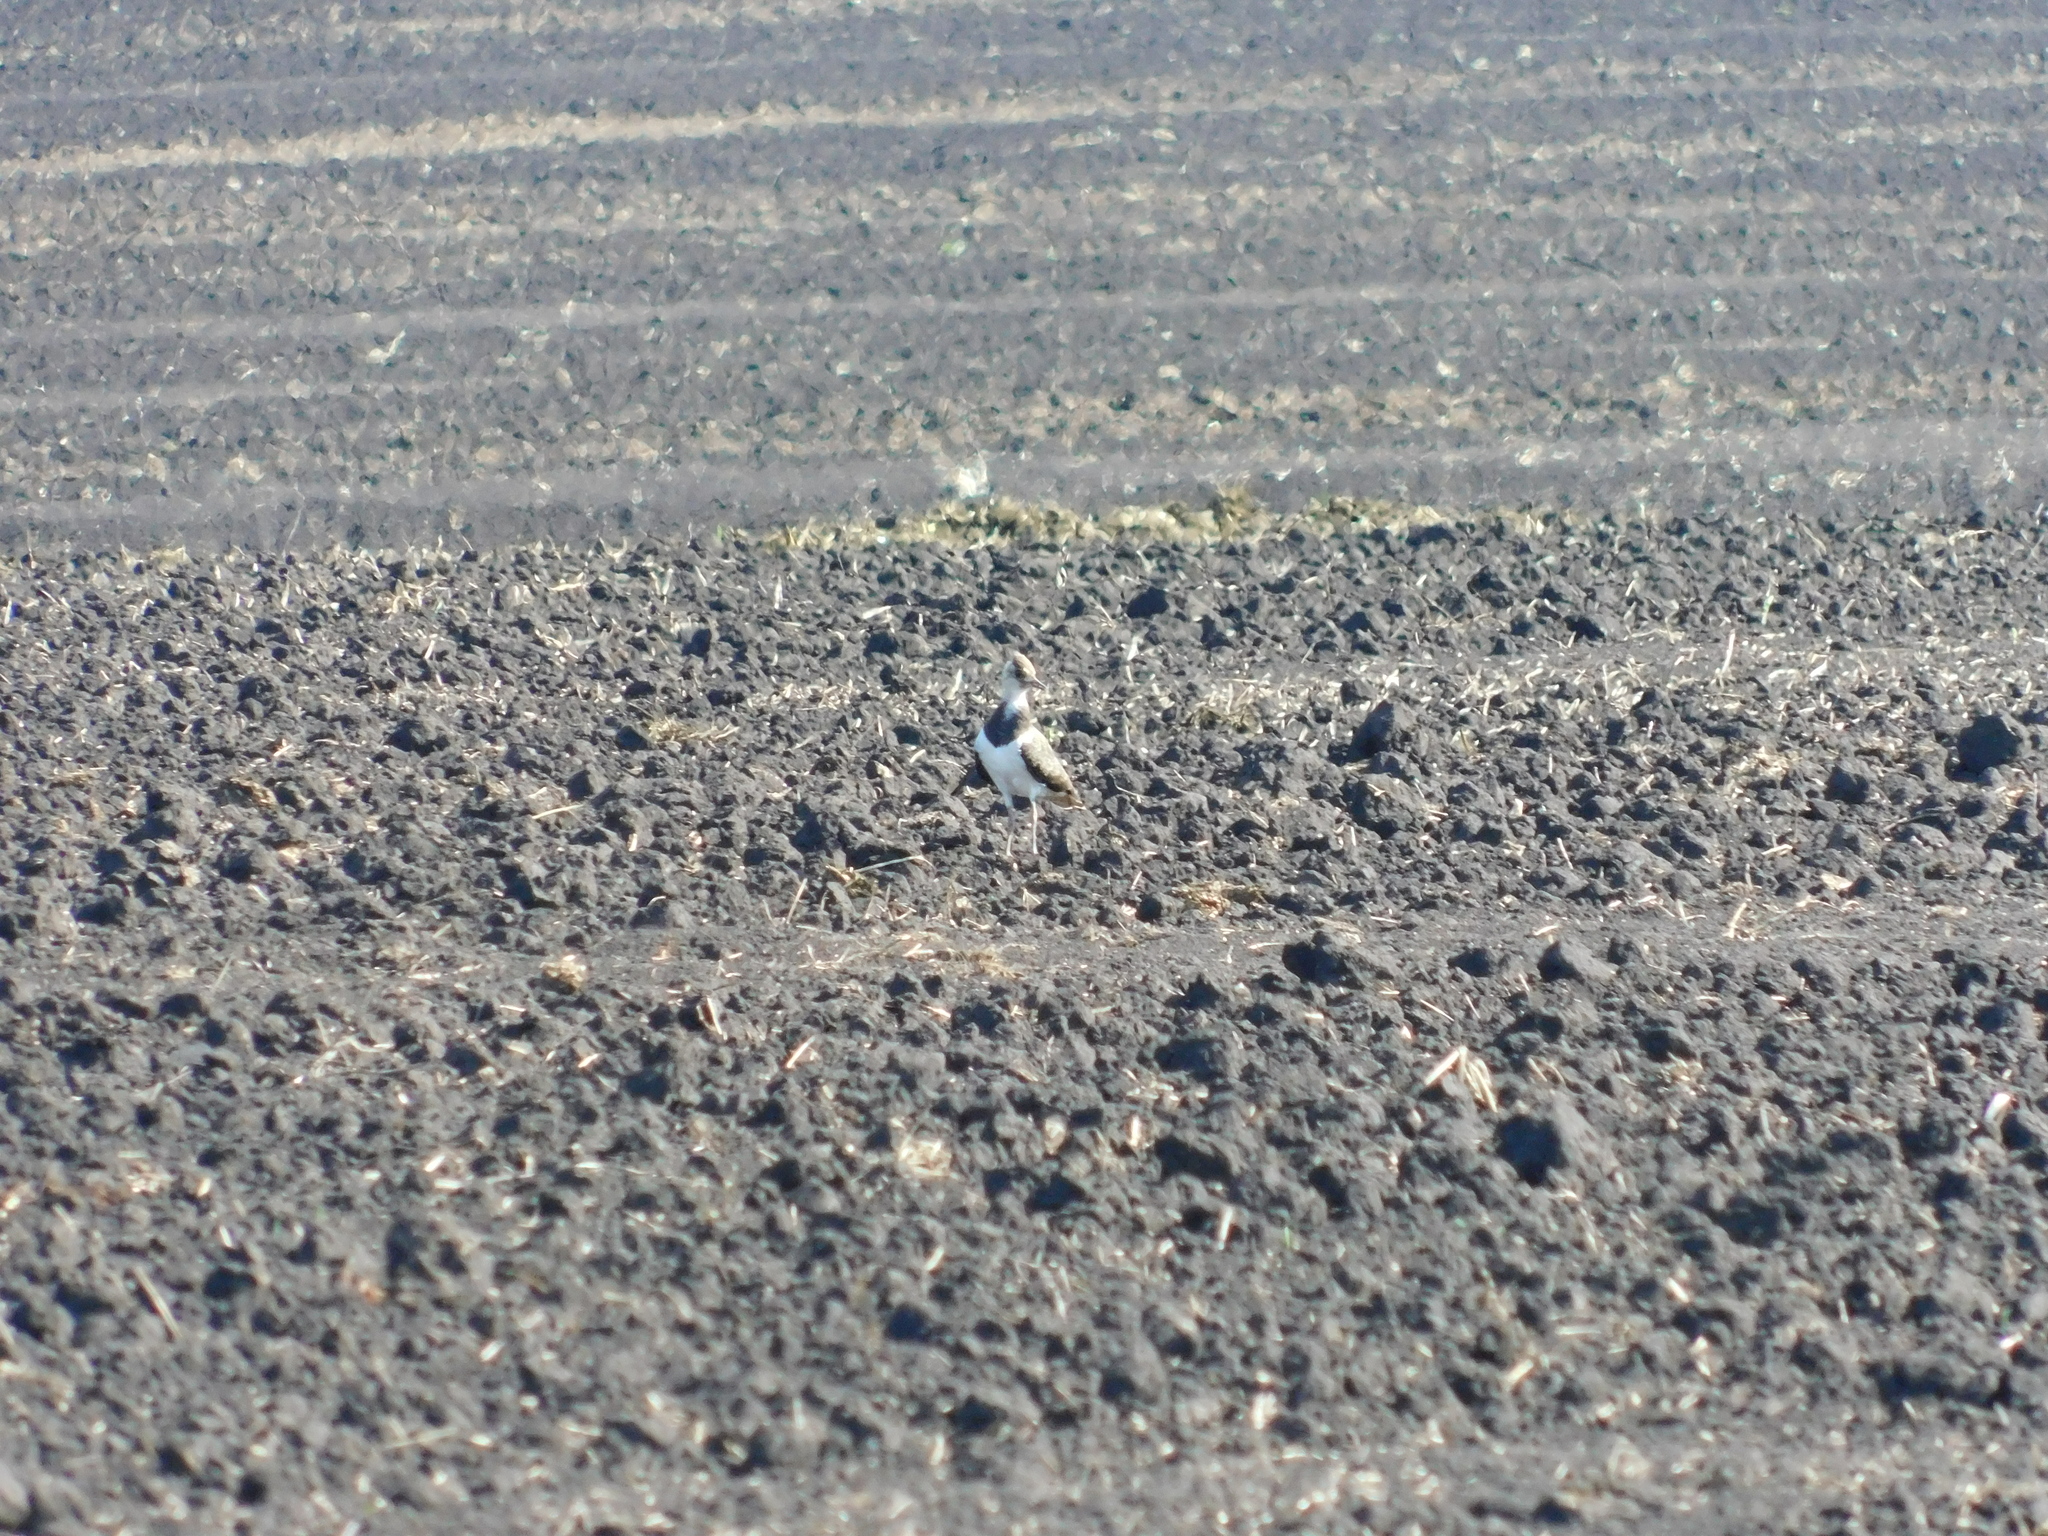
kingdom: Animalia
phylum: Chordata
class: Aves
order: Charadriiformes
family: Charadriidae
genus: Vanellus
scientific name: Vanellus vanellus
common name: Northern lapwing
